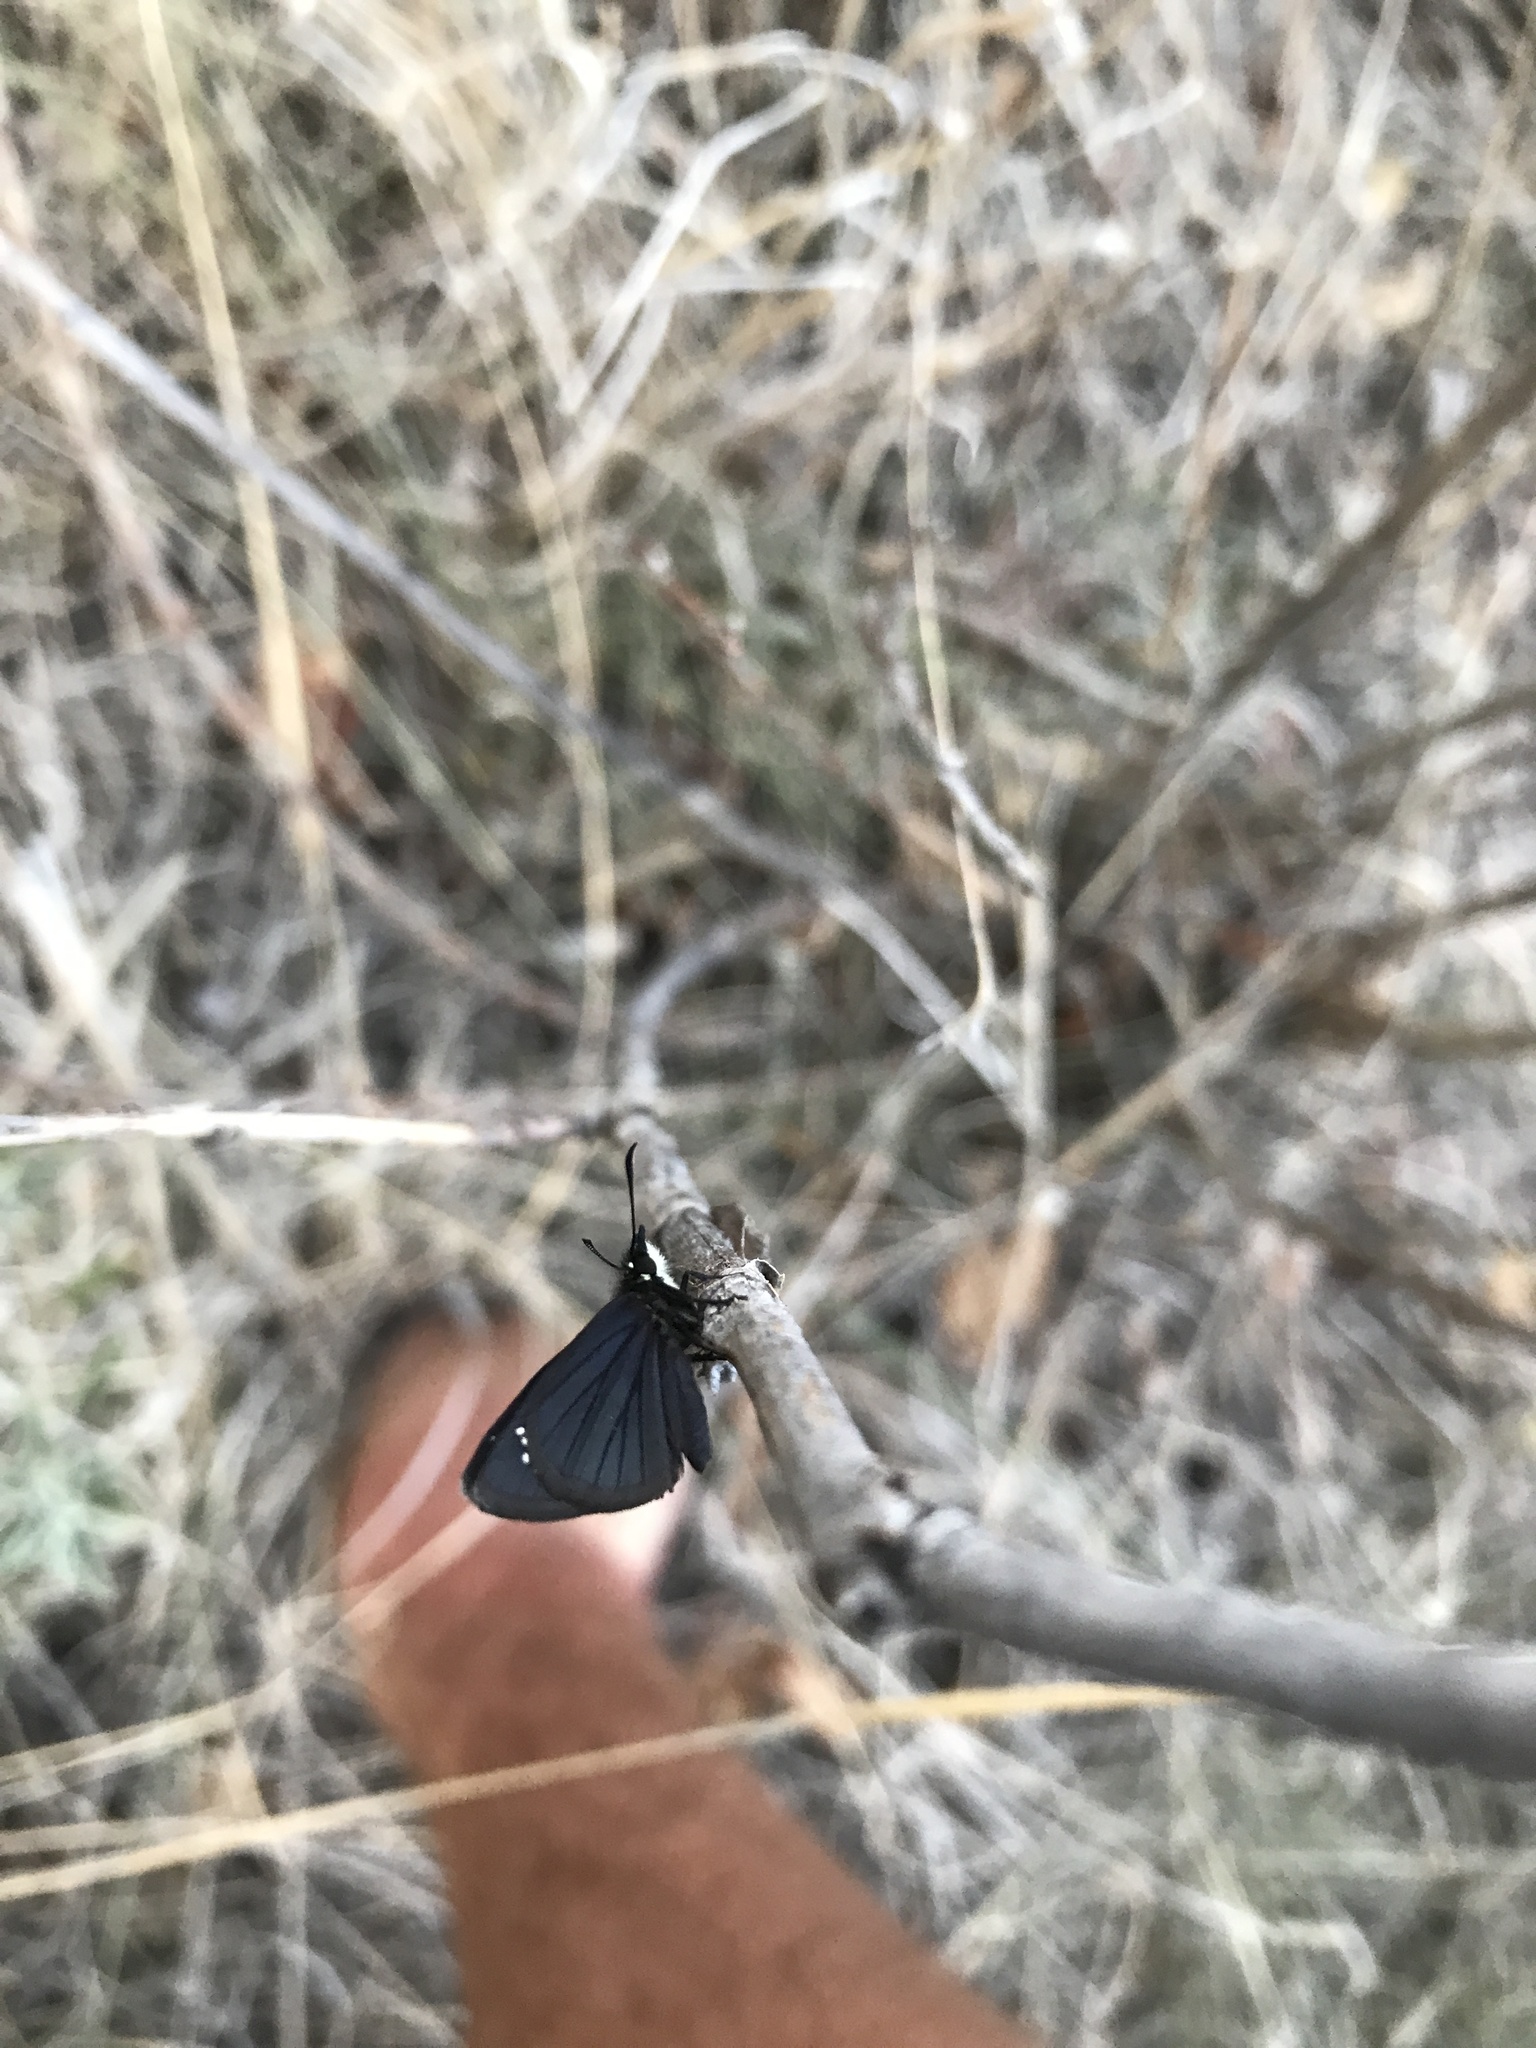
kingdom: Animalia
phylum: Arthropoda
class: Insecta
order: Lepidoptera
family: Hesperiidae
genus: Pholisora
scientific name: Pholisora mejicanus
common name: Mexican sootywing
